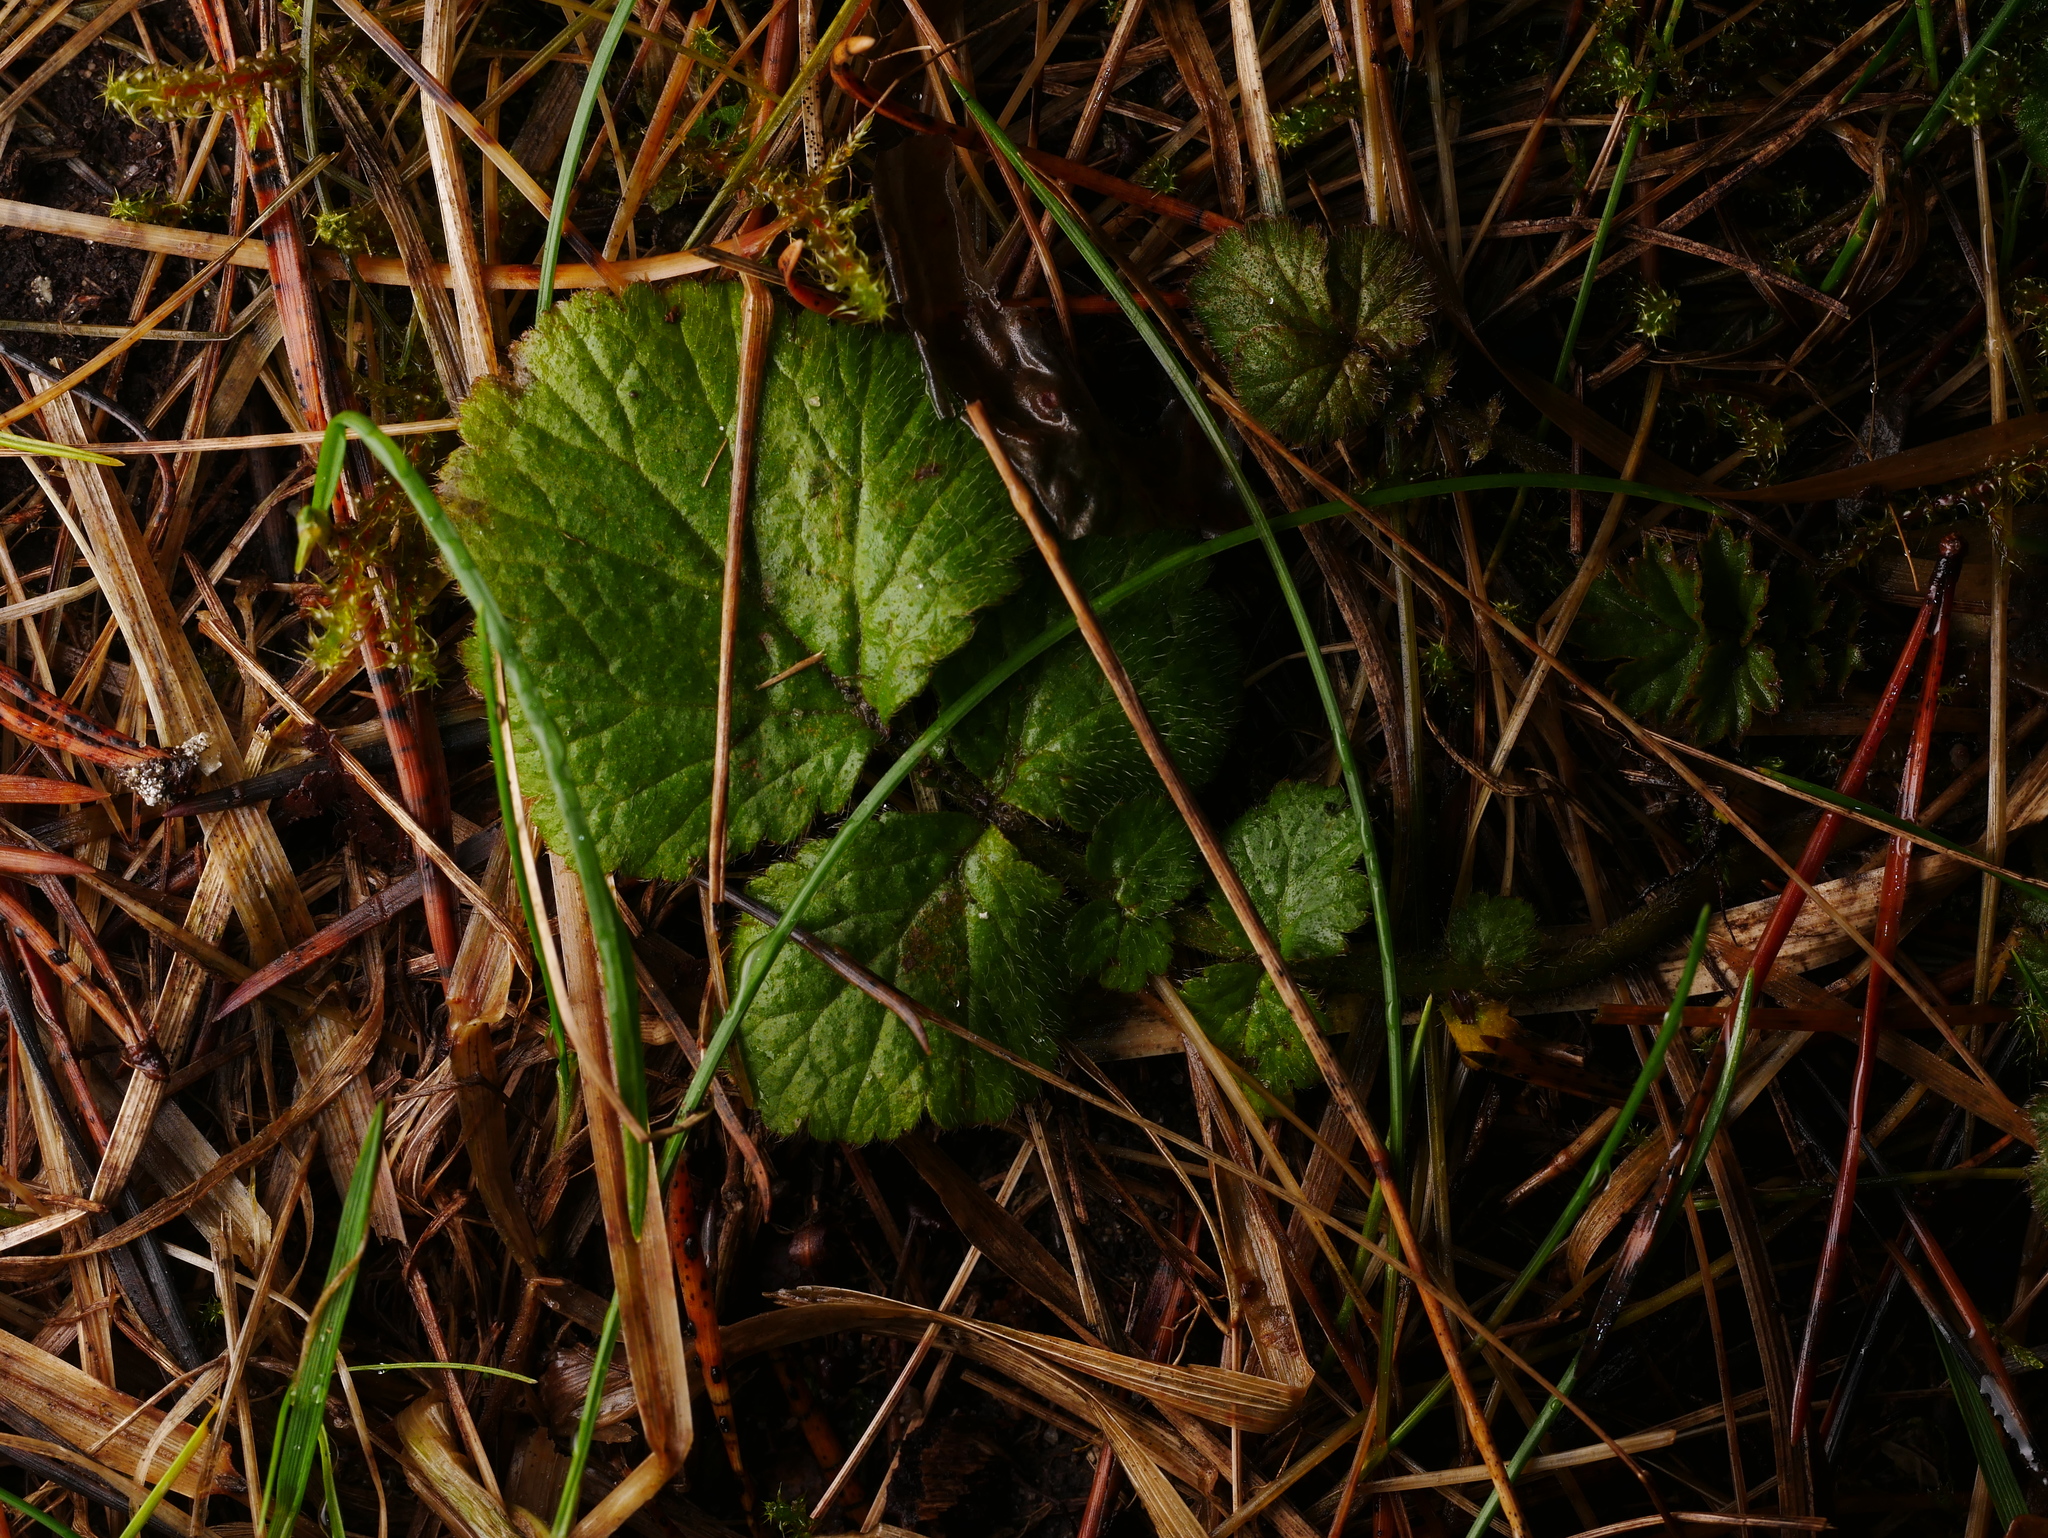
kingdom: Plantae
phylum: Tracheophyta
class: Magnoliopsida
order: Rosales
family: Rosaceae
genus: Geum
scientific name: Geum urbanum
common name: Wood avens
